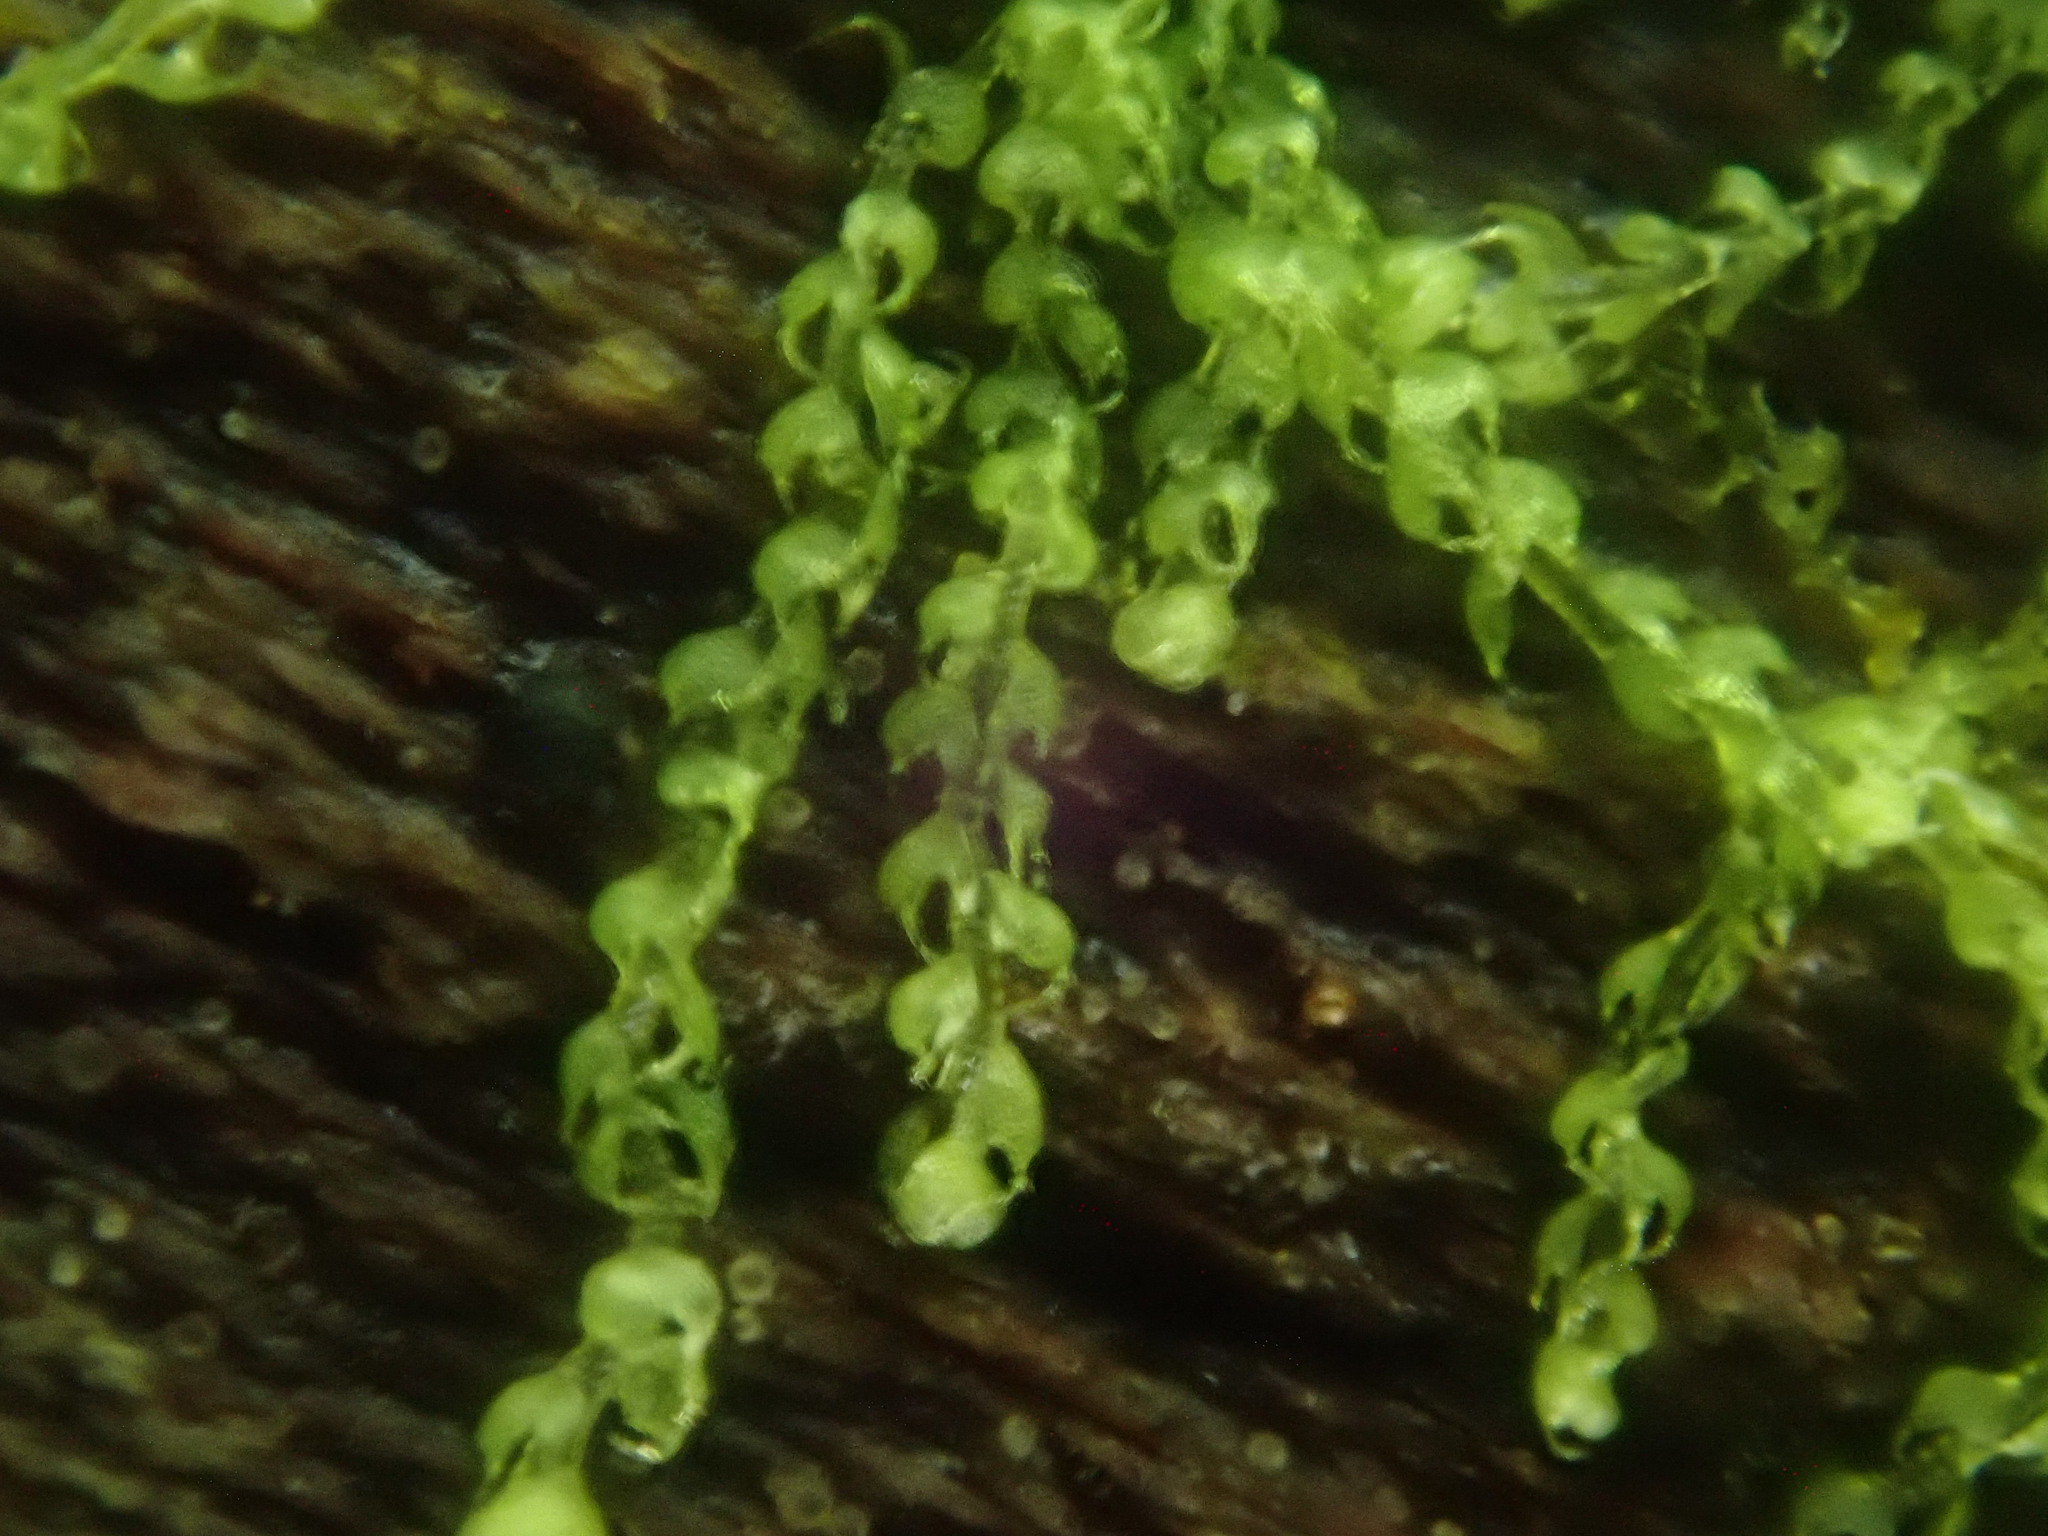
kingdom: Plantae
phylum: Marchantiophyta
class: Jungermanniopsida
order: Jungermanniales
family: Cephaloziaceae
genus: Nowellia
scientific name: Nowellia curvifolia
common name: Wood rustwort
